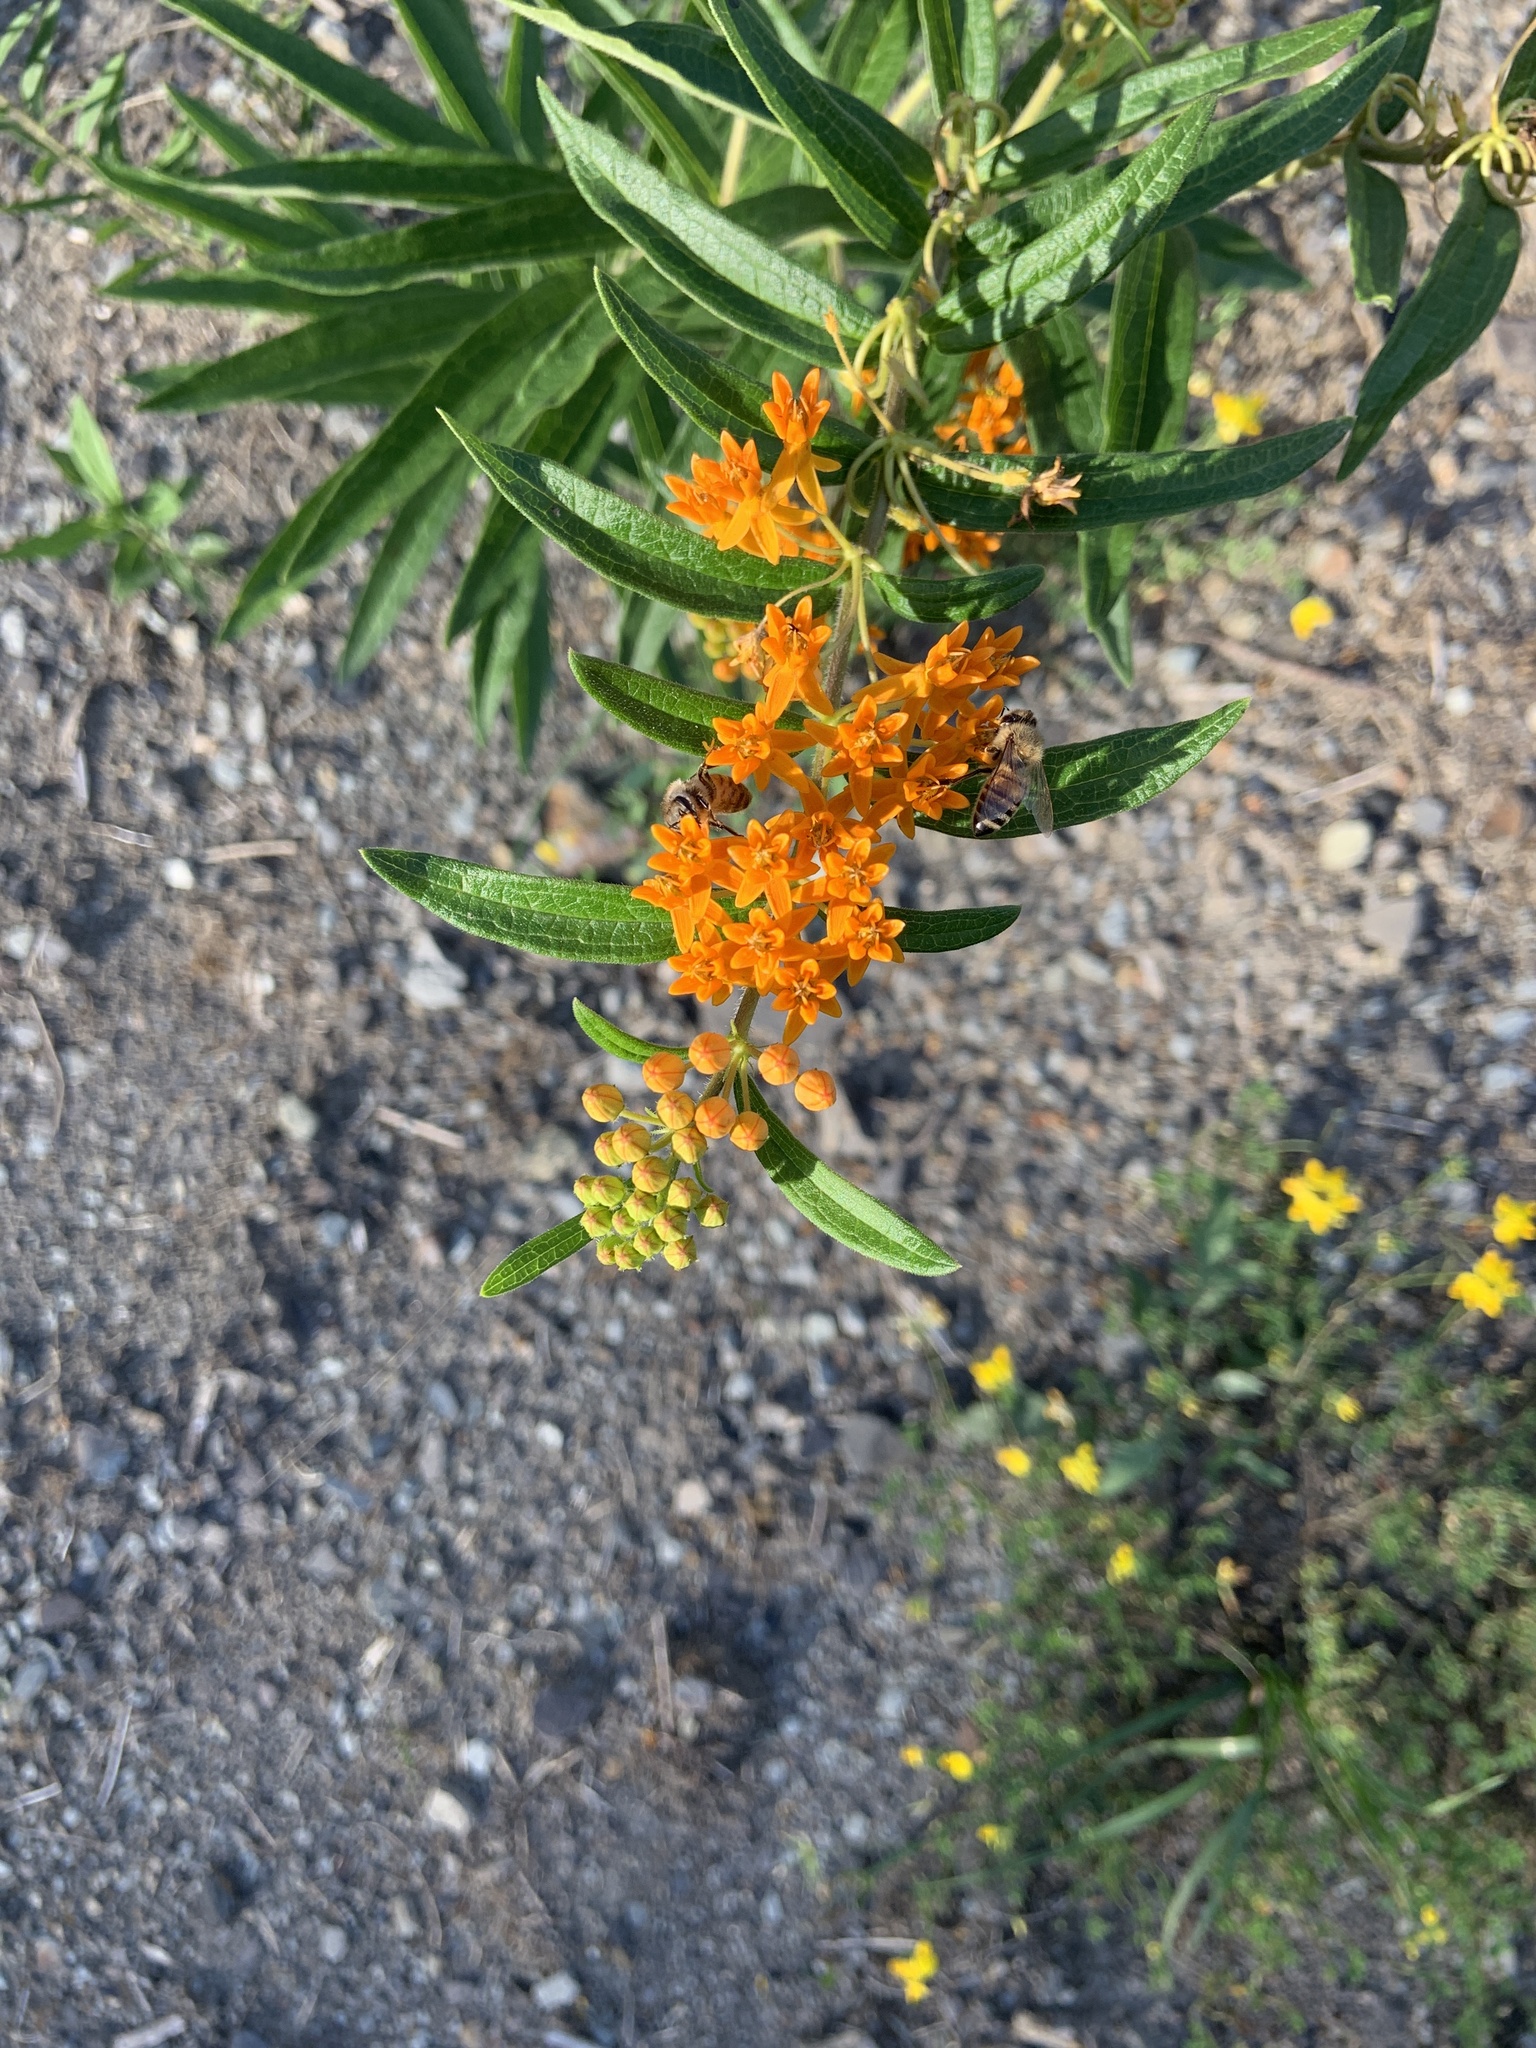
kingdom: Plantae
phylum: Tracheophyta
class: Magnoliopsida
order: Gentianales
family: Apocynaceae
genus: Asclepias
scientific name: Asclepias tuberosa
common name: Butterfly milkweed
